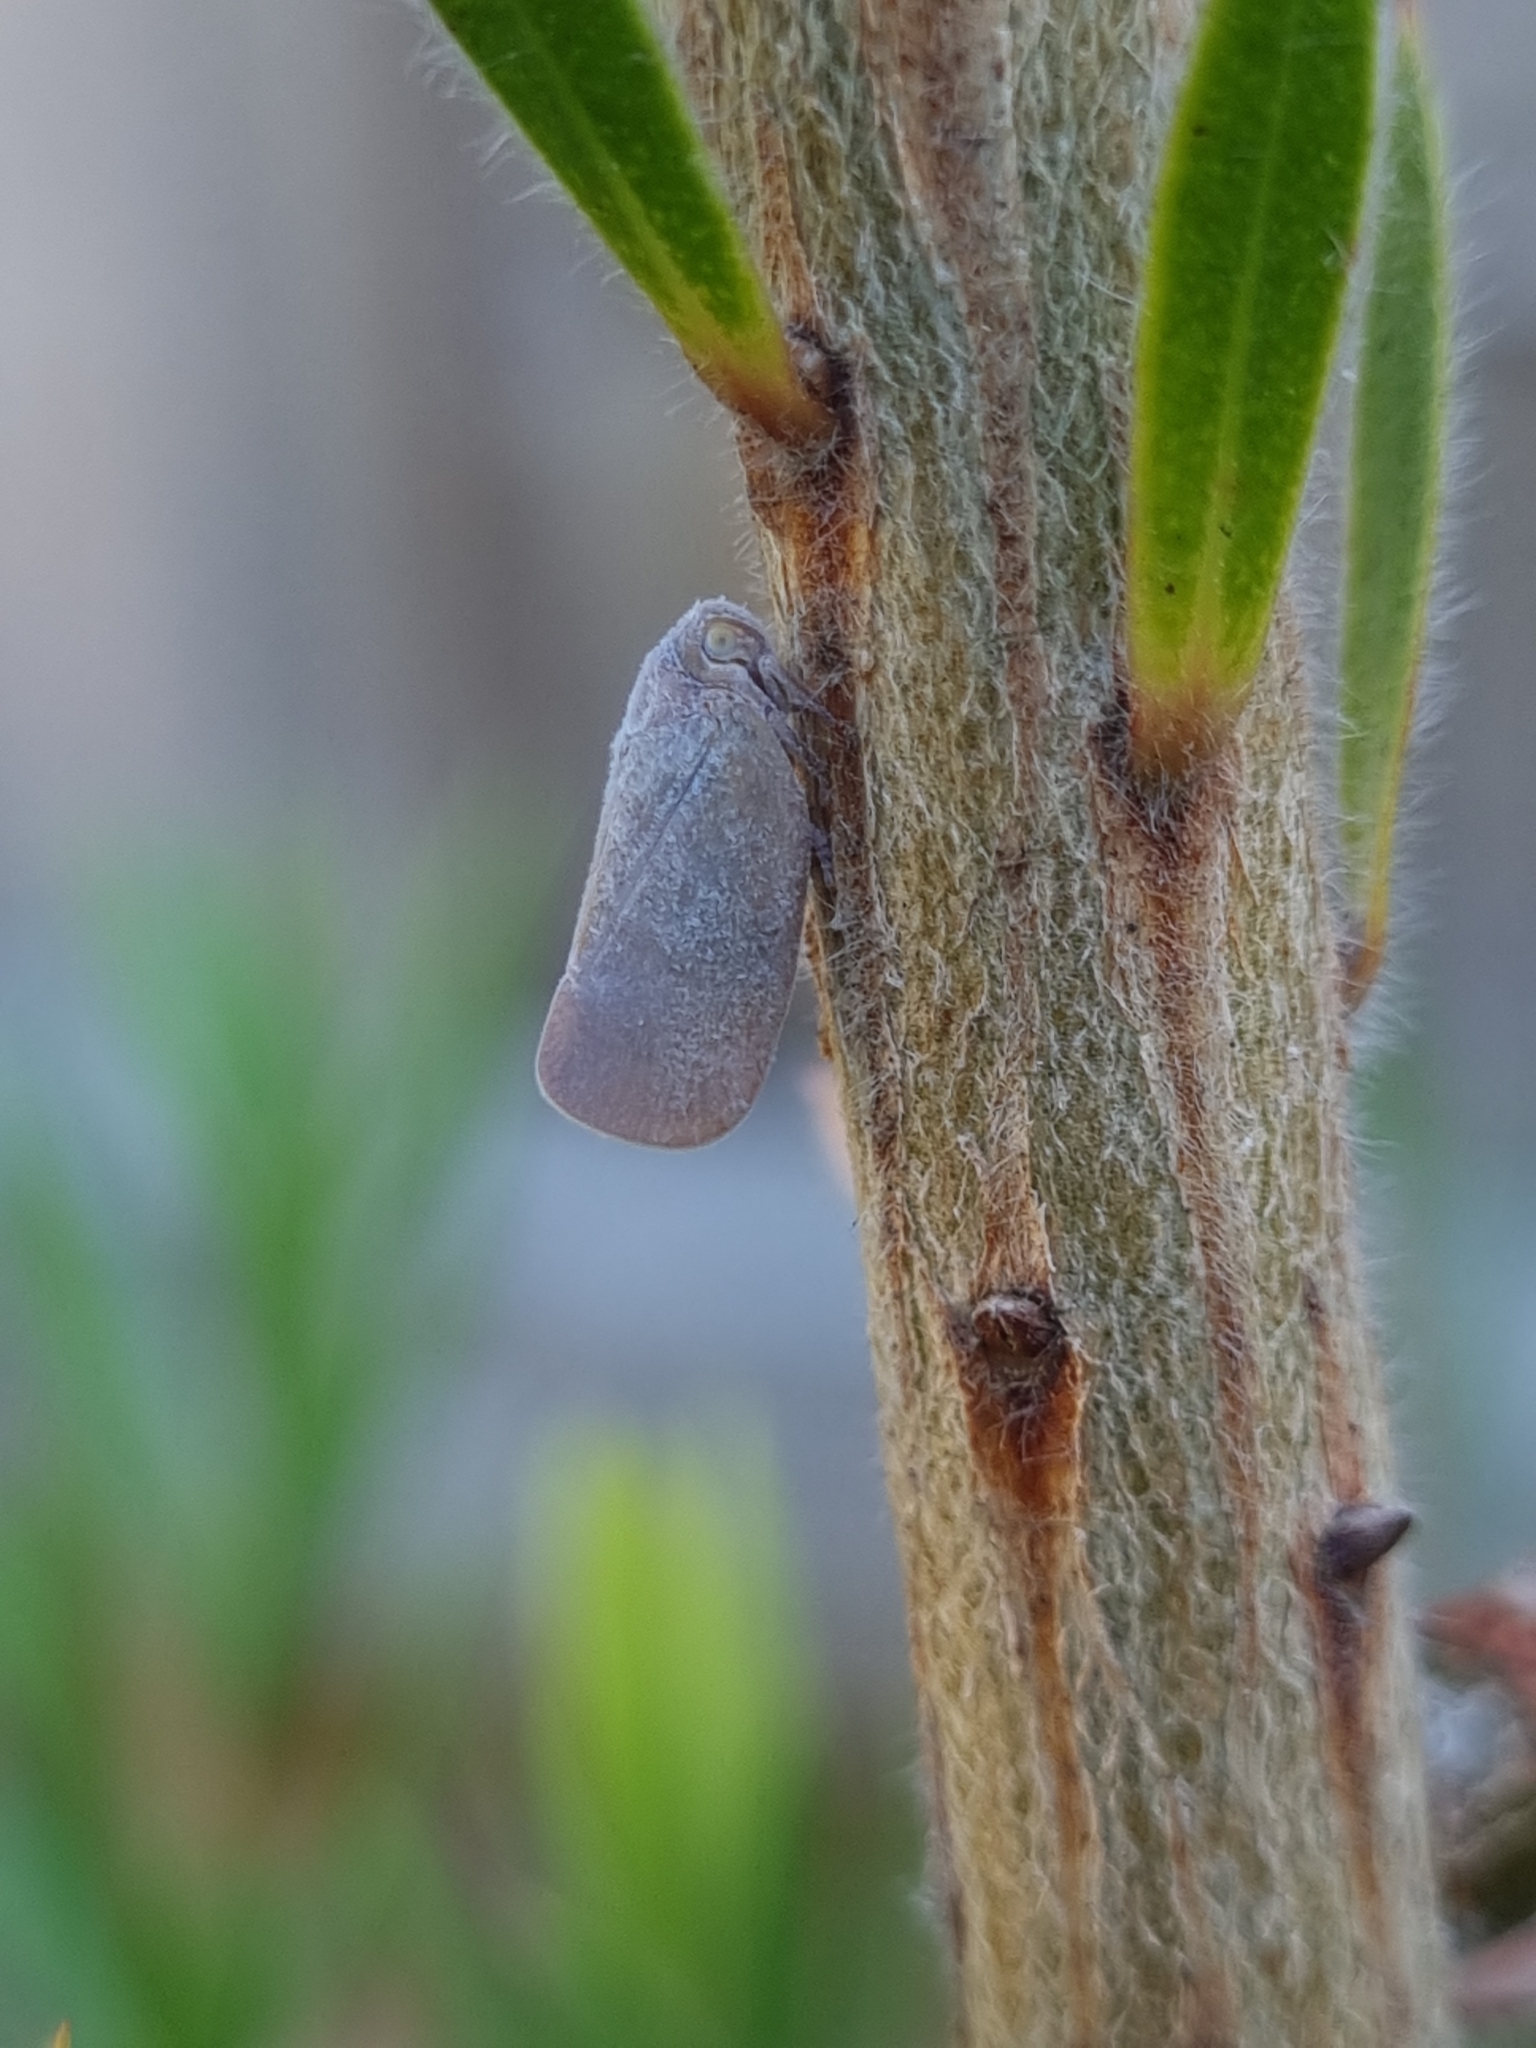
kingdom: Animalia
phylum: Arthropoda
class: Insecta
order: Hemiptera
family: Flatidae
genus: Anzora
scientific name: Anzora unicolor
